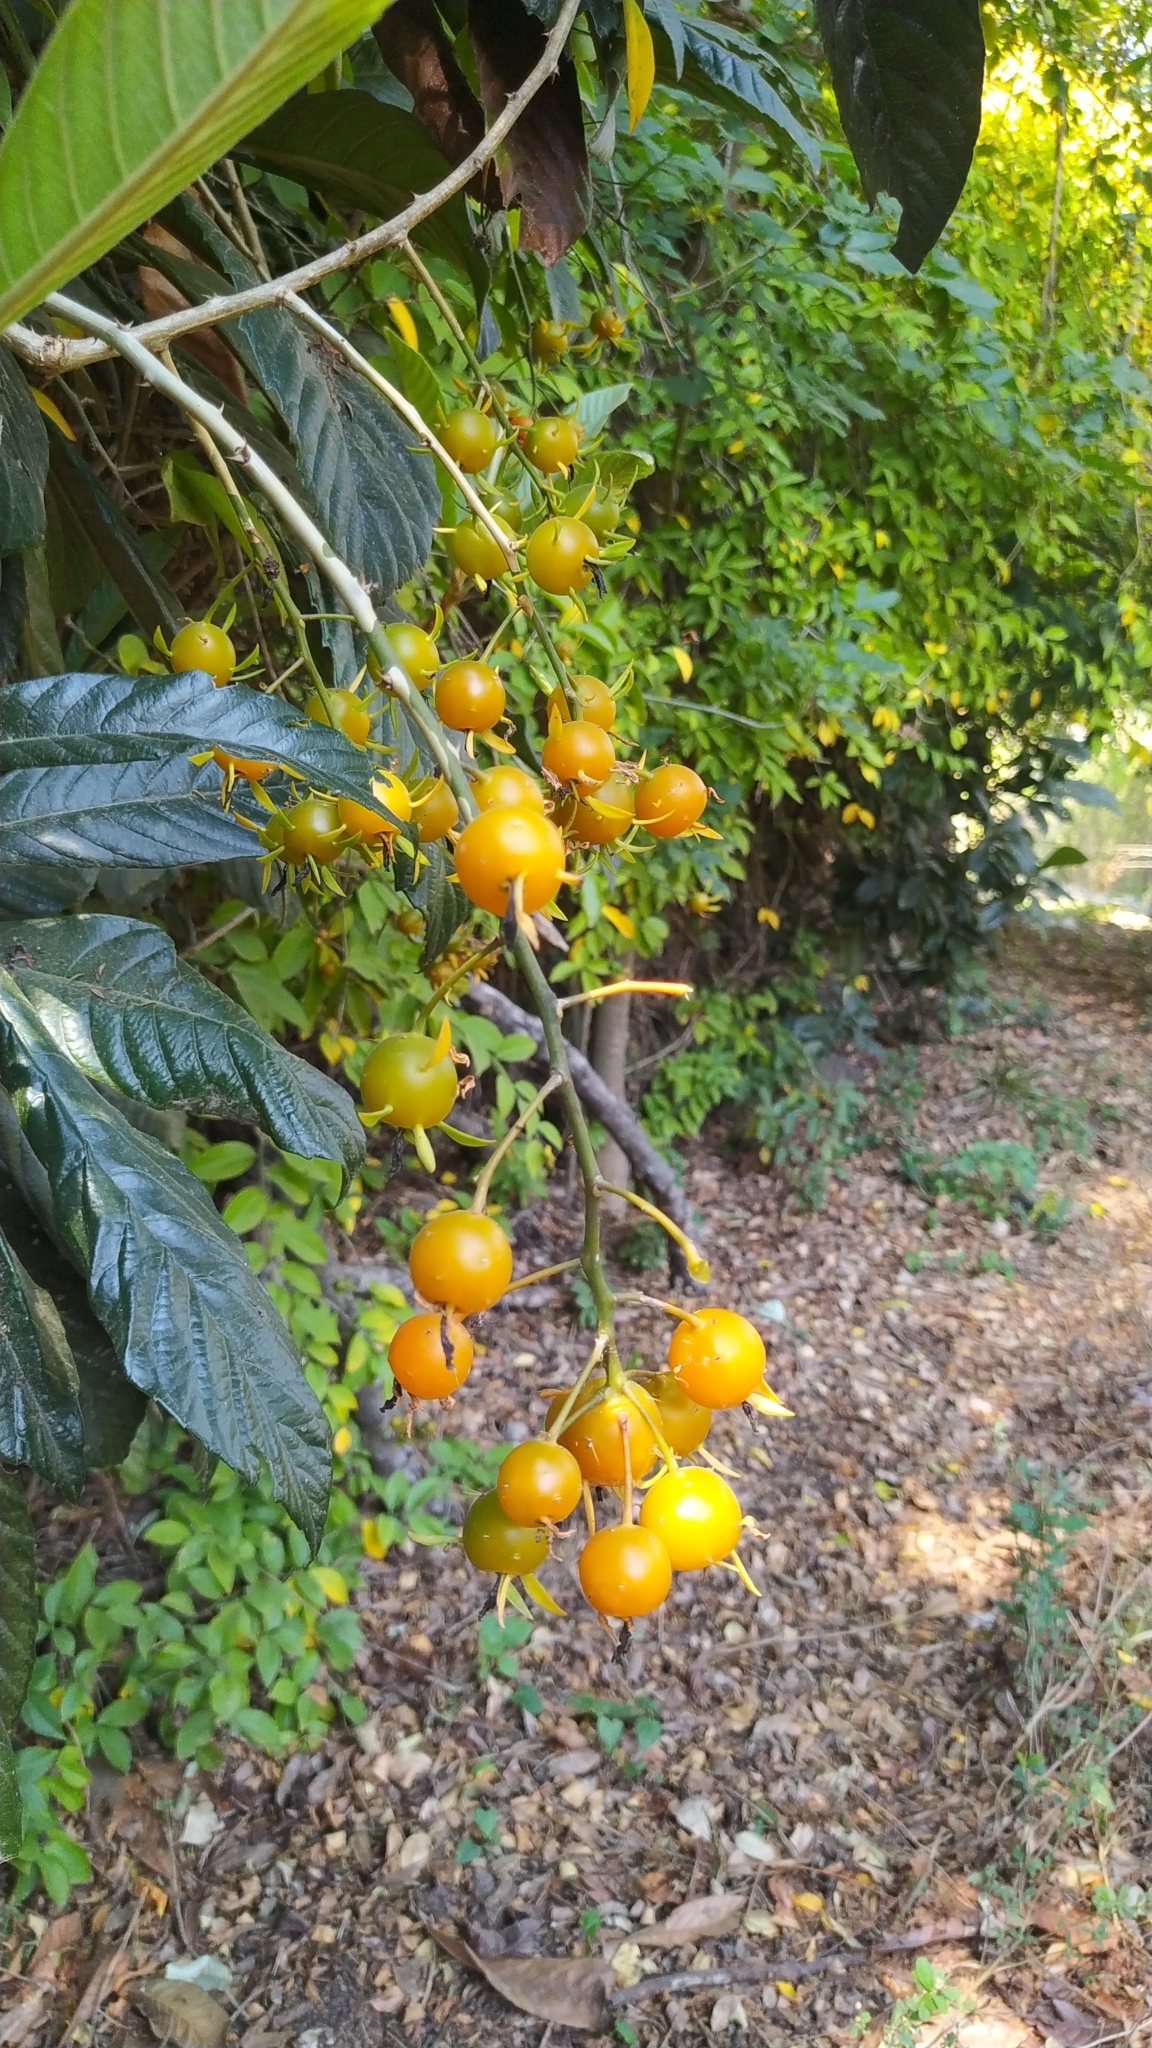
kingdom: Plantae
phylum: Tracheophyta
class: Magnoliopsida
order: Caryophyllales
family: Cactaceae
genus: Pereskia
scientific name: Pereskia aculeata
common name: Barbados gooseberry
